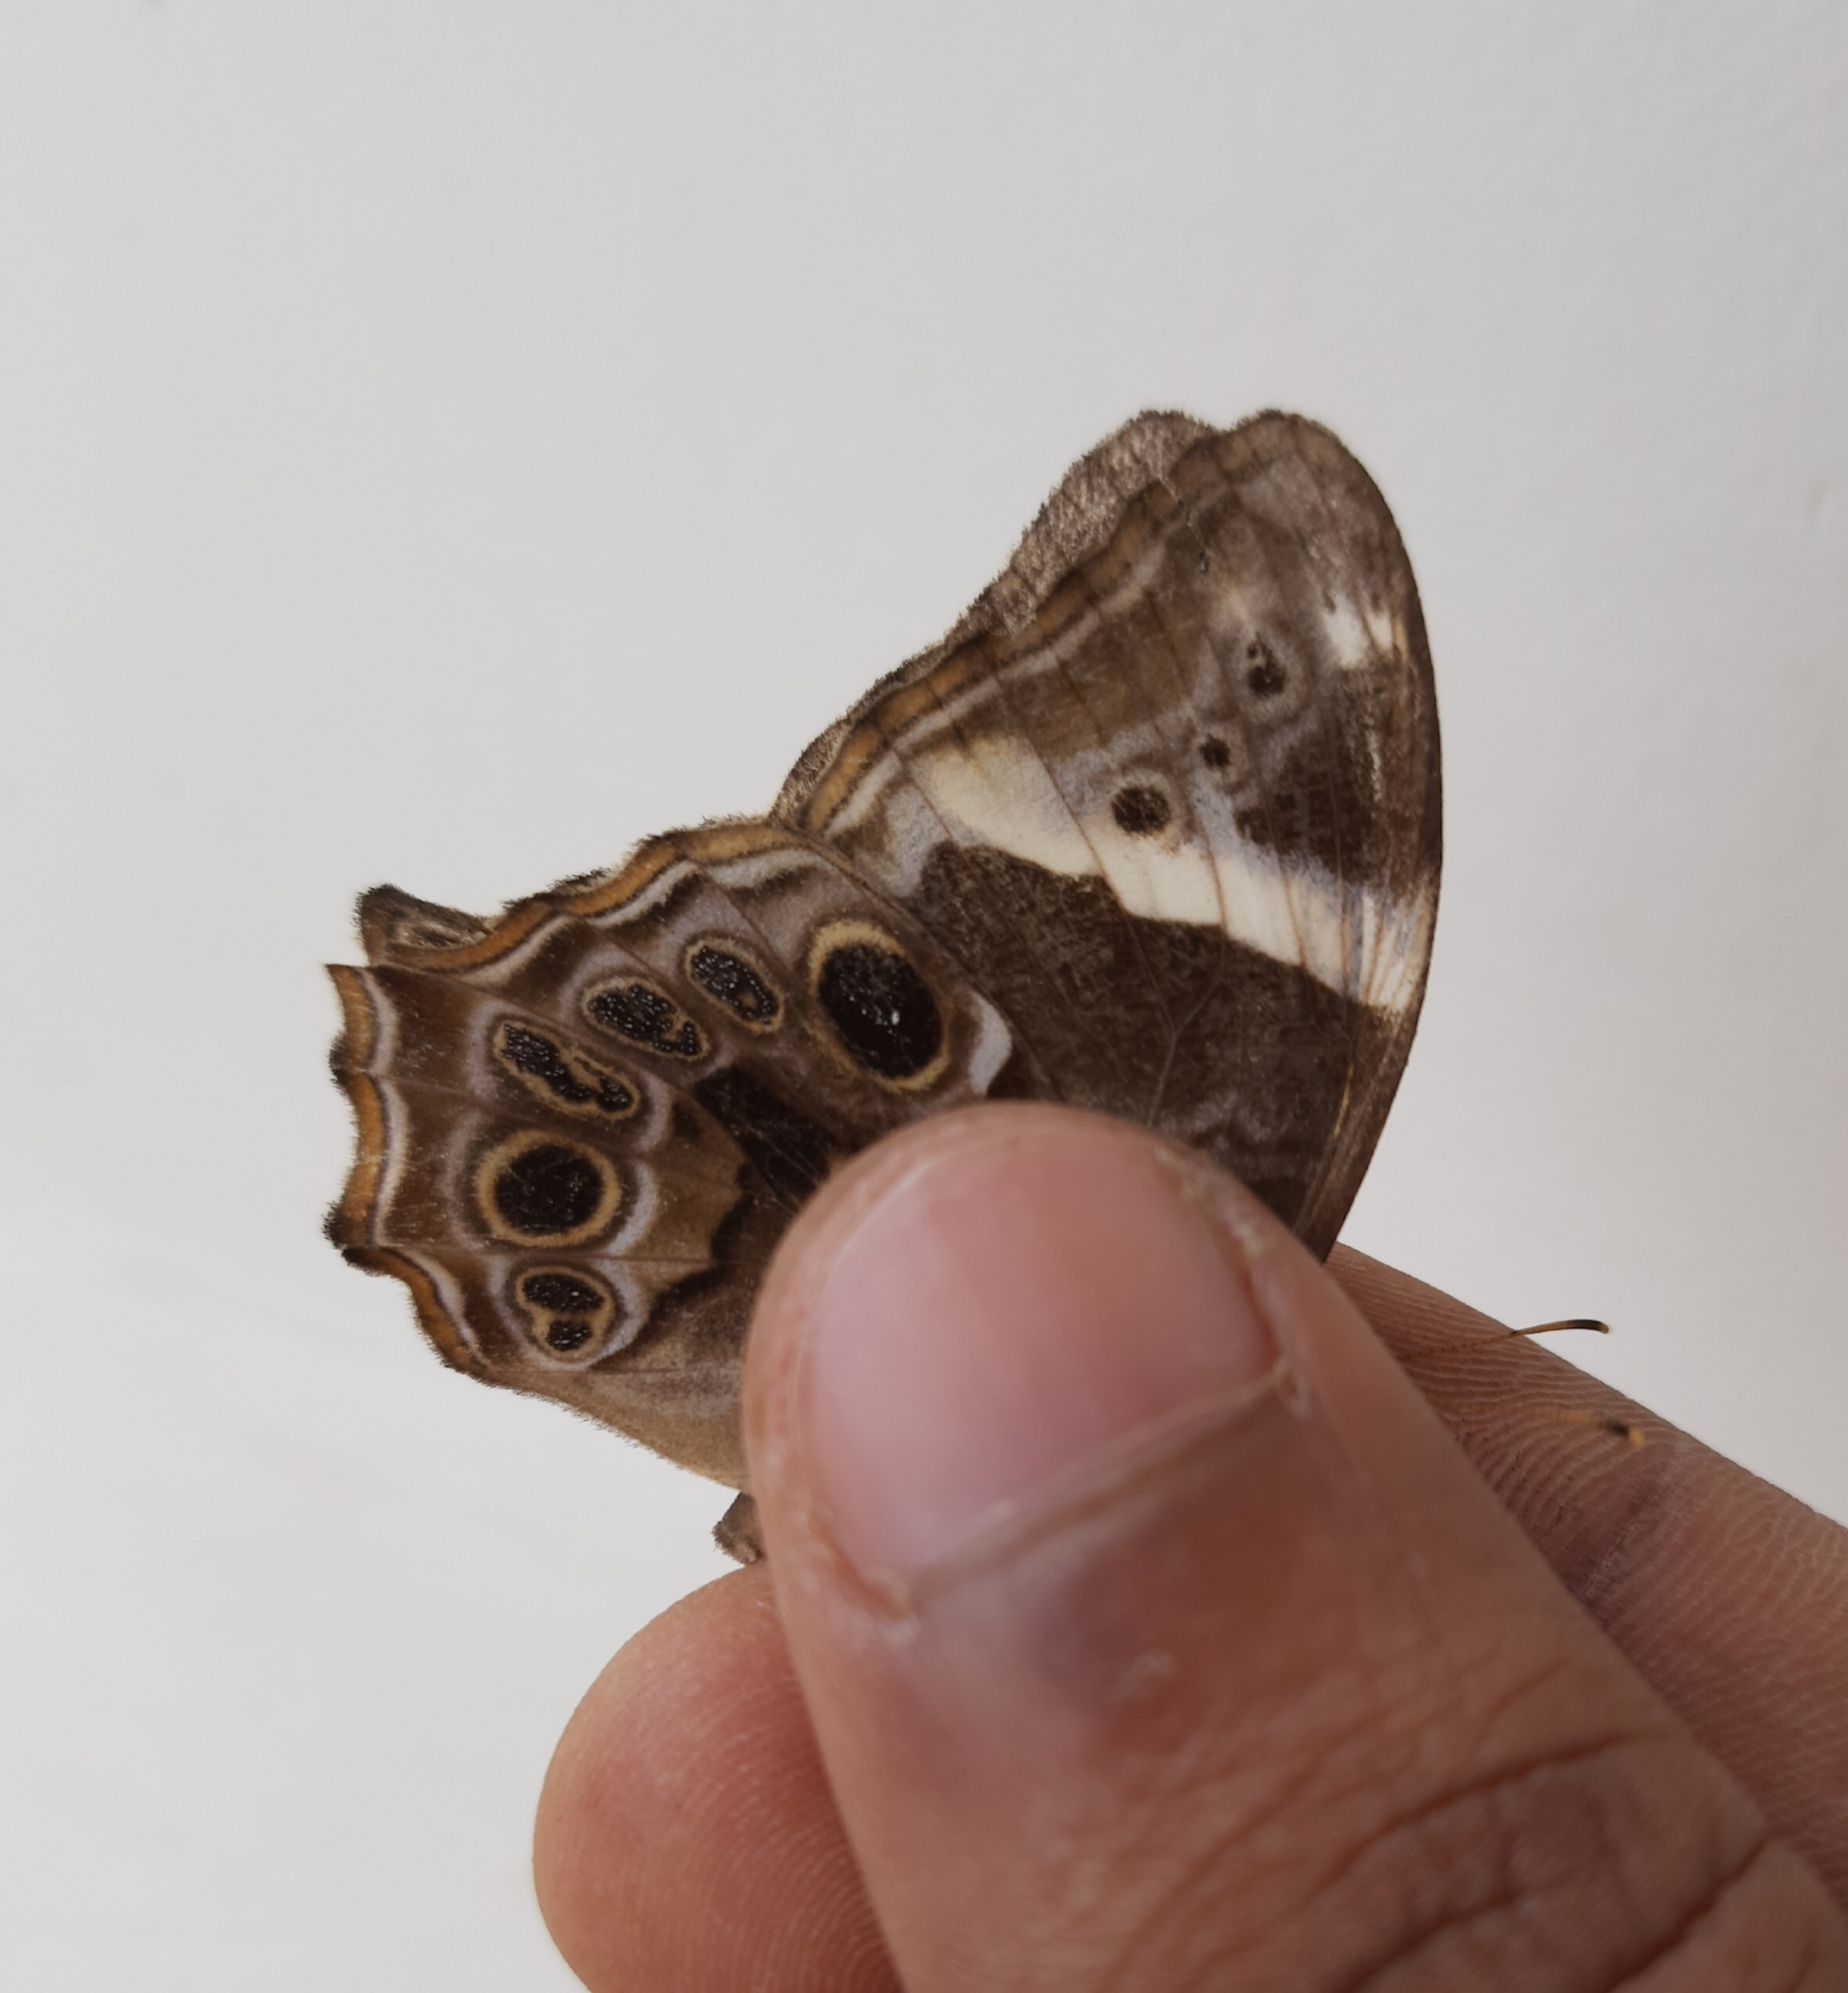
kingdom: Animalia
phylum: Arthropoda
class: Insecta
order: Lepidoptera
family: Nymphalidae
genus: Lethe
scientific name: Lethe drypetis
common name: Tamil treebrown
